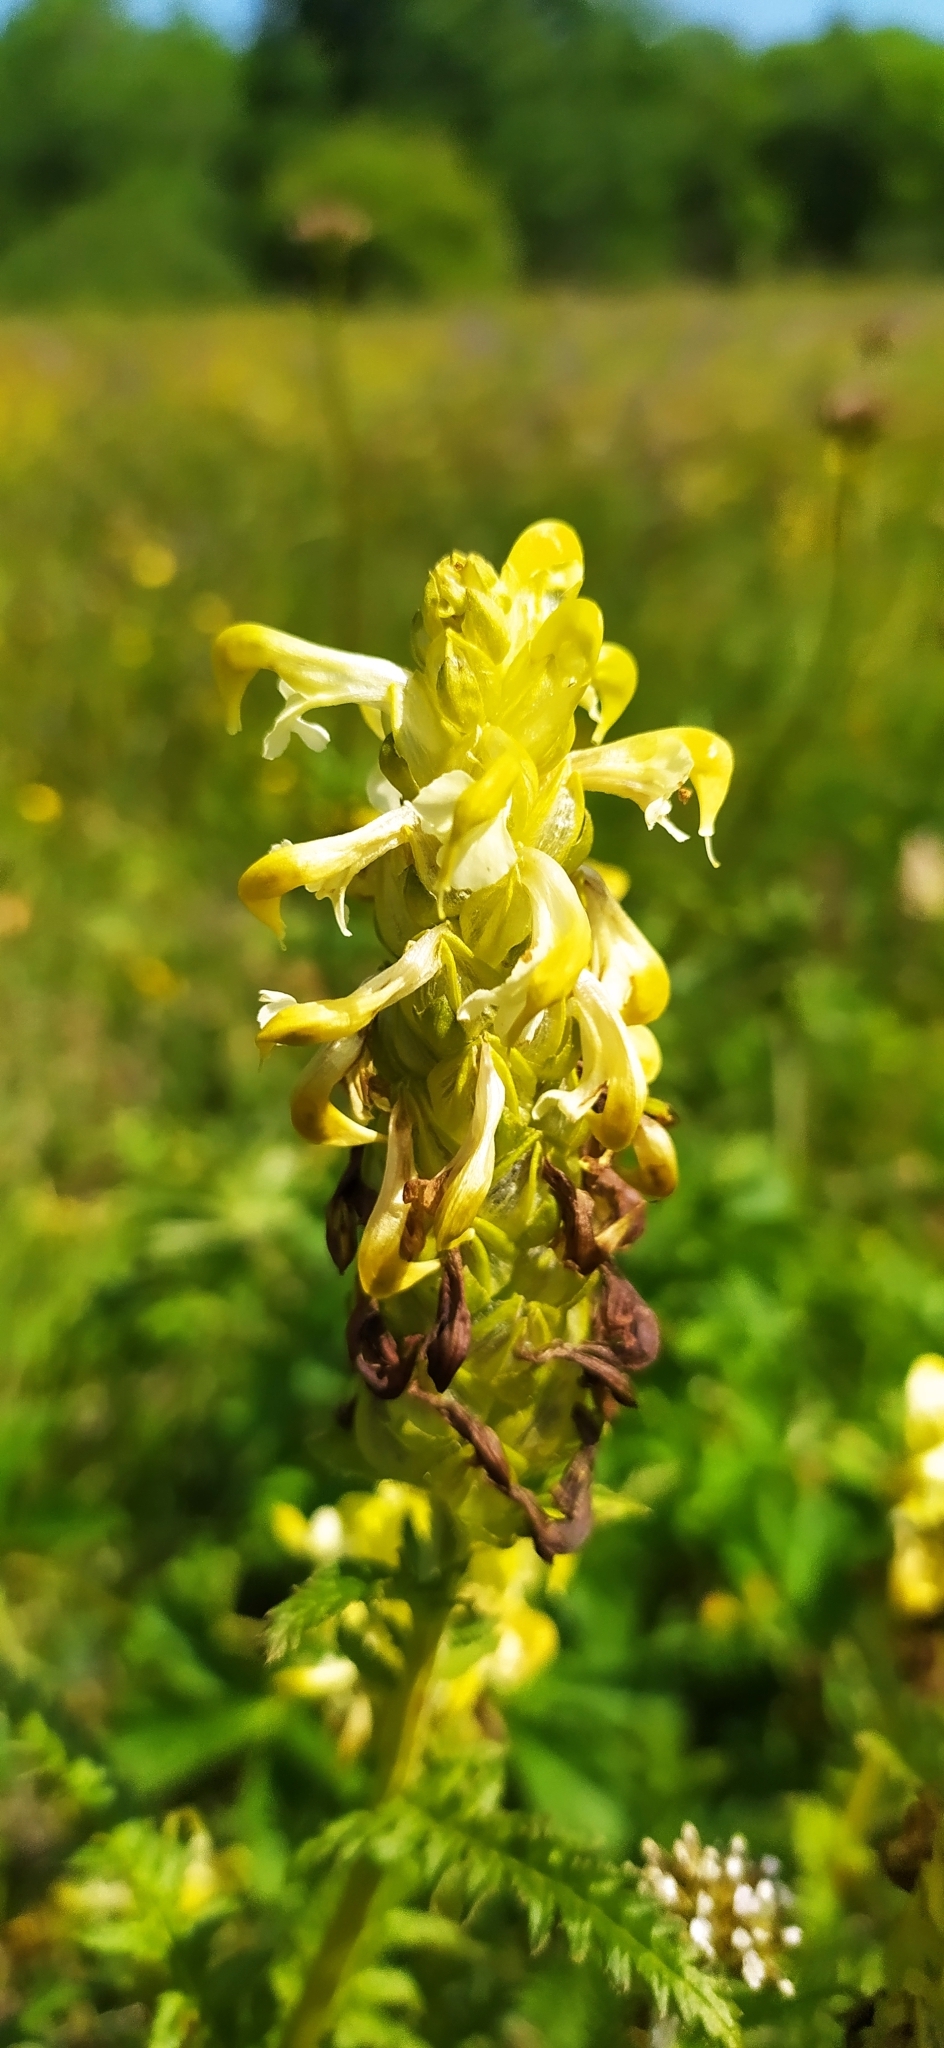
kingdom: Plantae
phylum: Tracheophyta
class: Magnoliopsida
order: Lamiales
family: Orobanchaceae
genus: Pedicularis
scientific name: Pedicularis compacta
